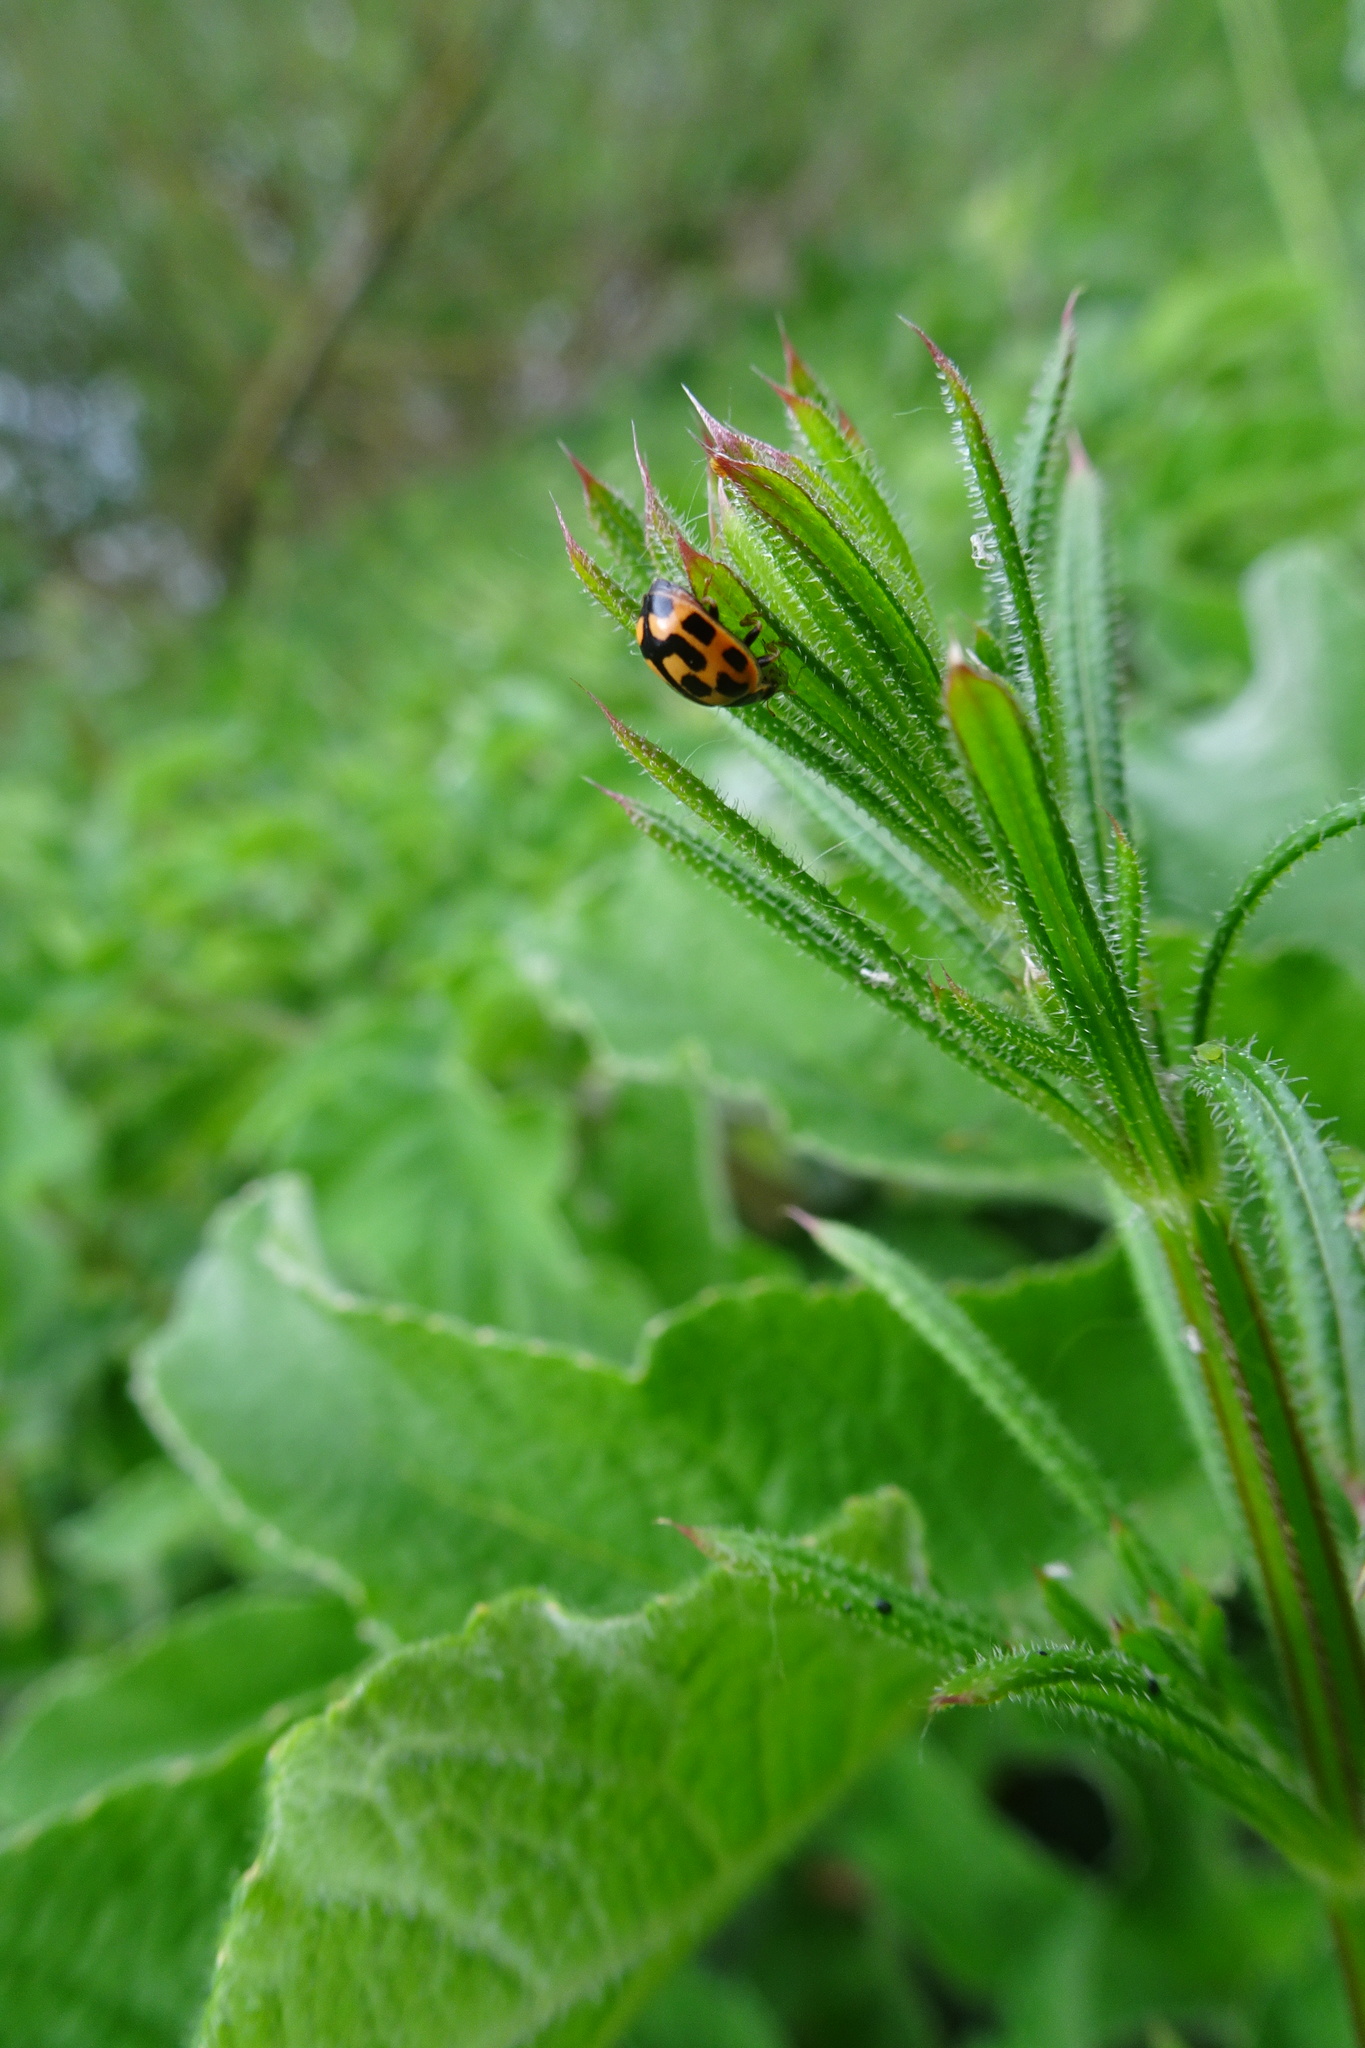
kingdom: Animalia
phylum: Arthropoda
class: Insecta
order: Coleoptera
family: Coccinellidae
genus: Propylaea
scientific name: Propylaea quatuordecimpunctata
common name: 14-spotted ladybird beetle
